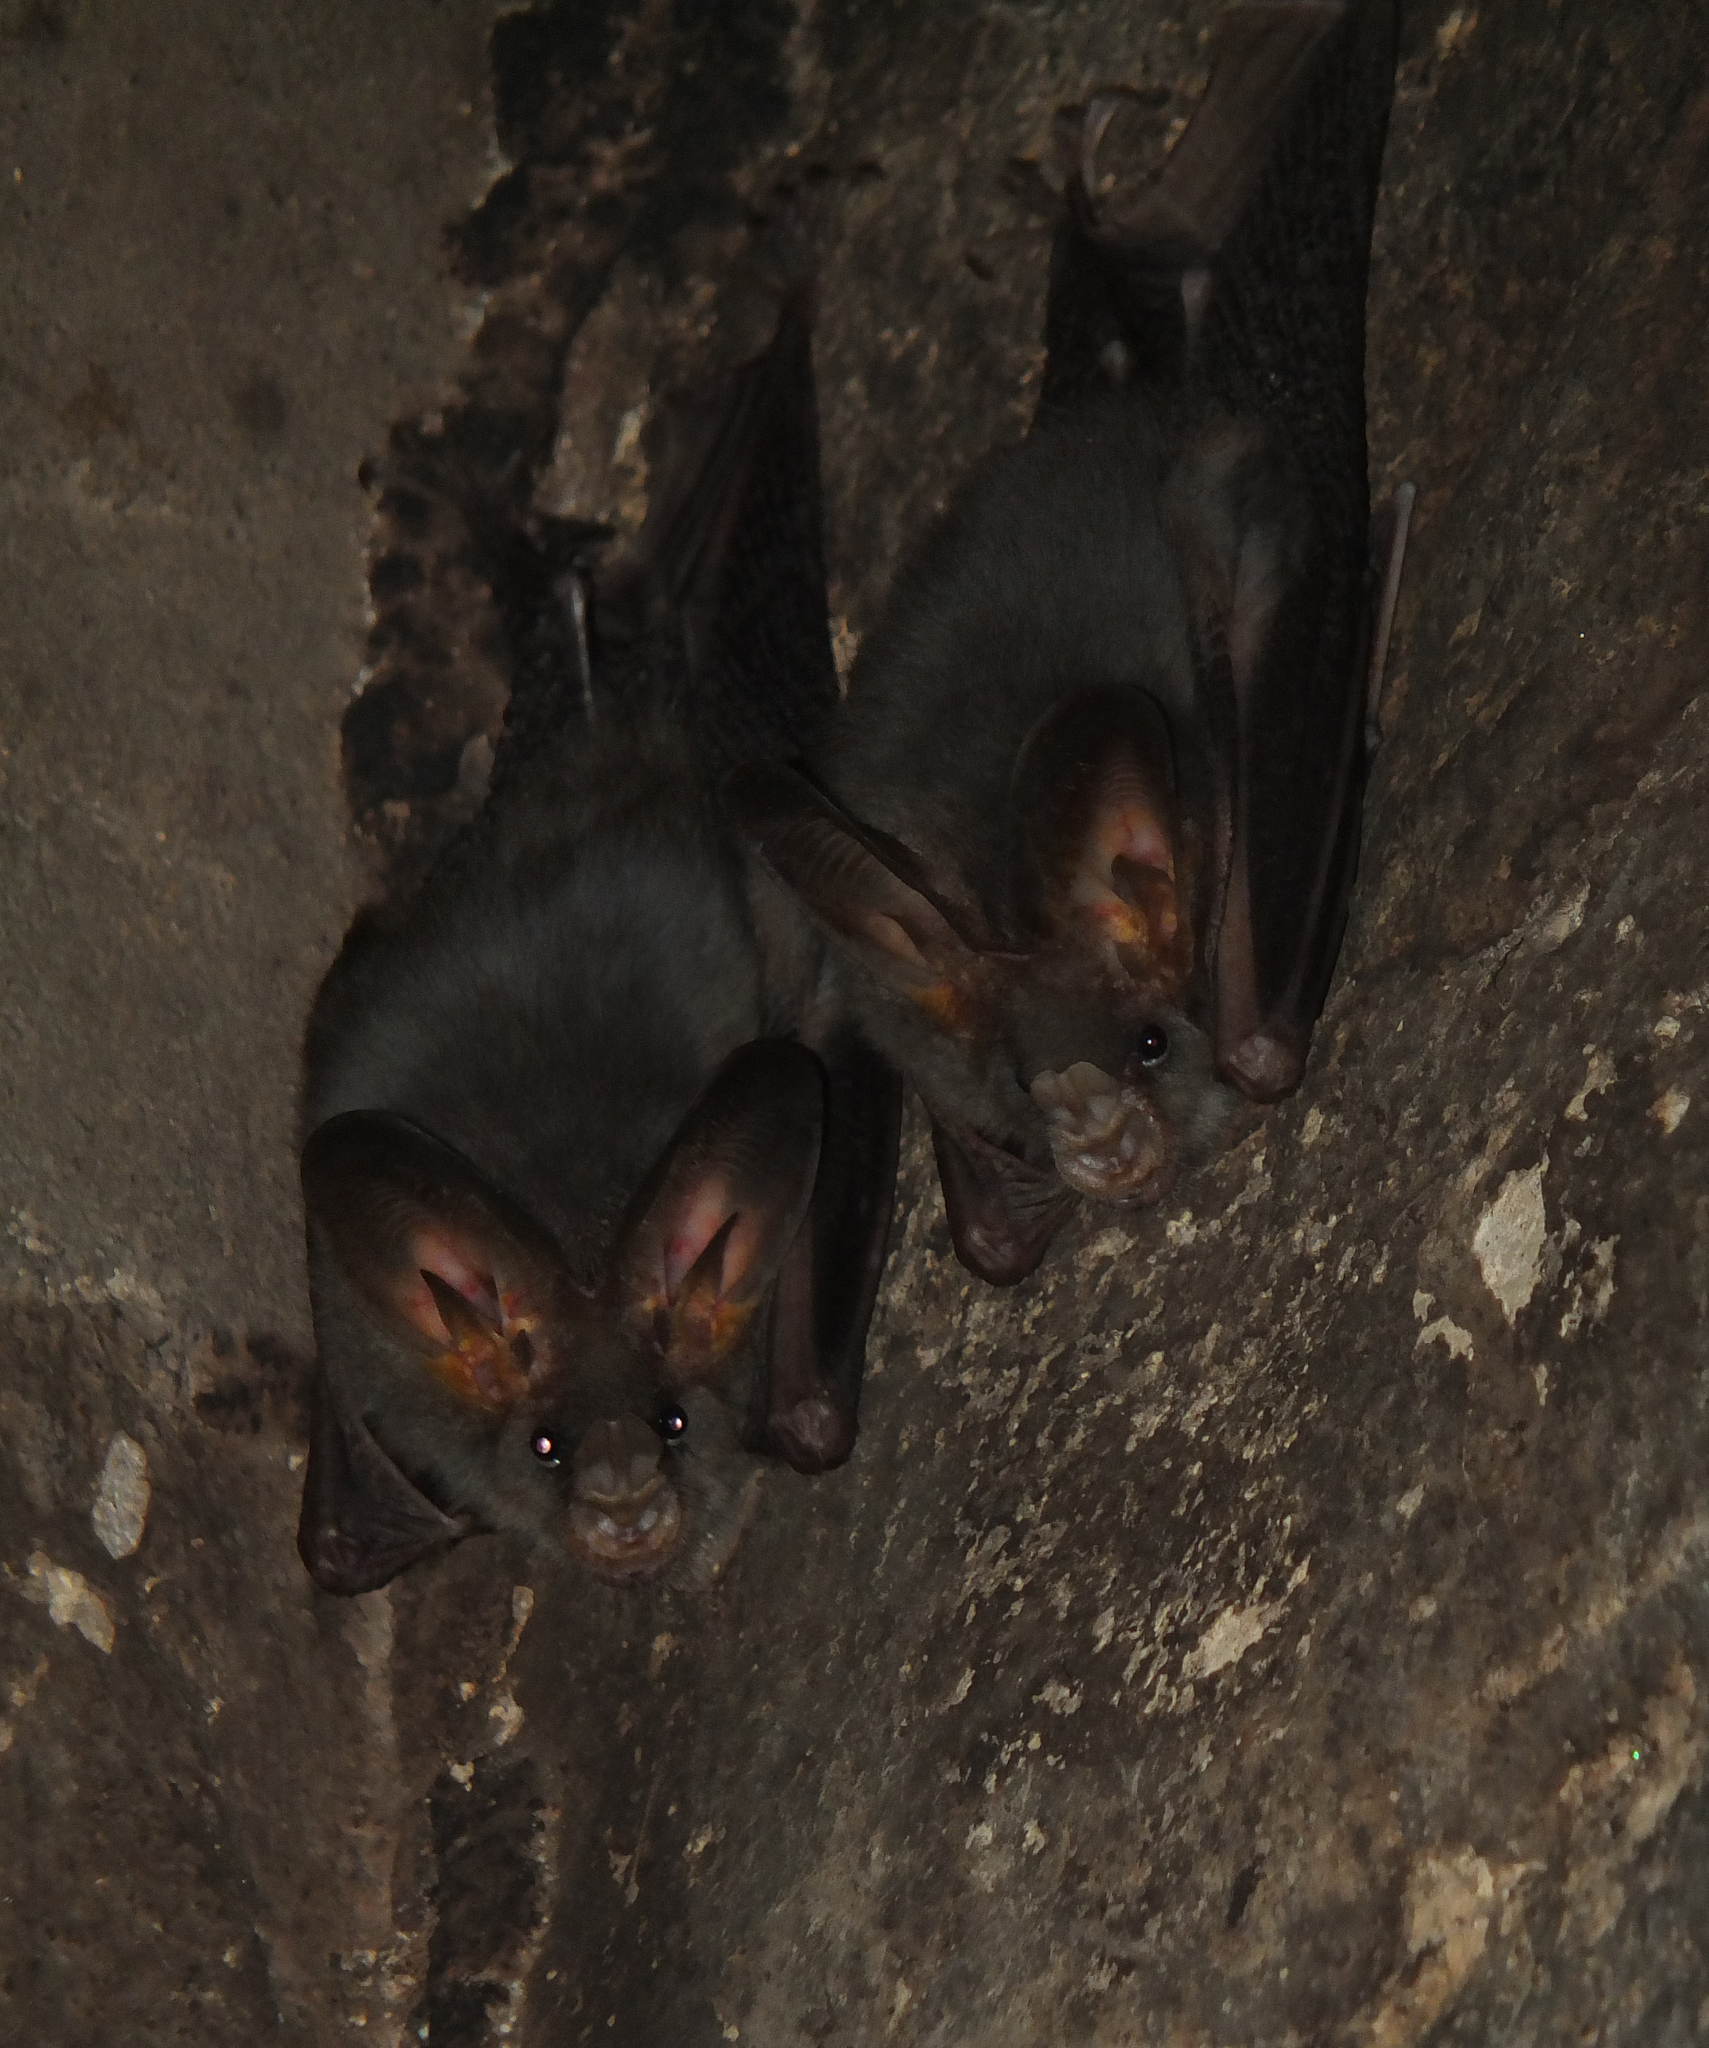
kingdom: Animalia
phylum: Chordata
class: Mammalia
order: Chiroptera
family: Megadermatidae
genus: Megaderma
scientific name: Megaderma spasma
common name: Lesser false vampire bat
